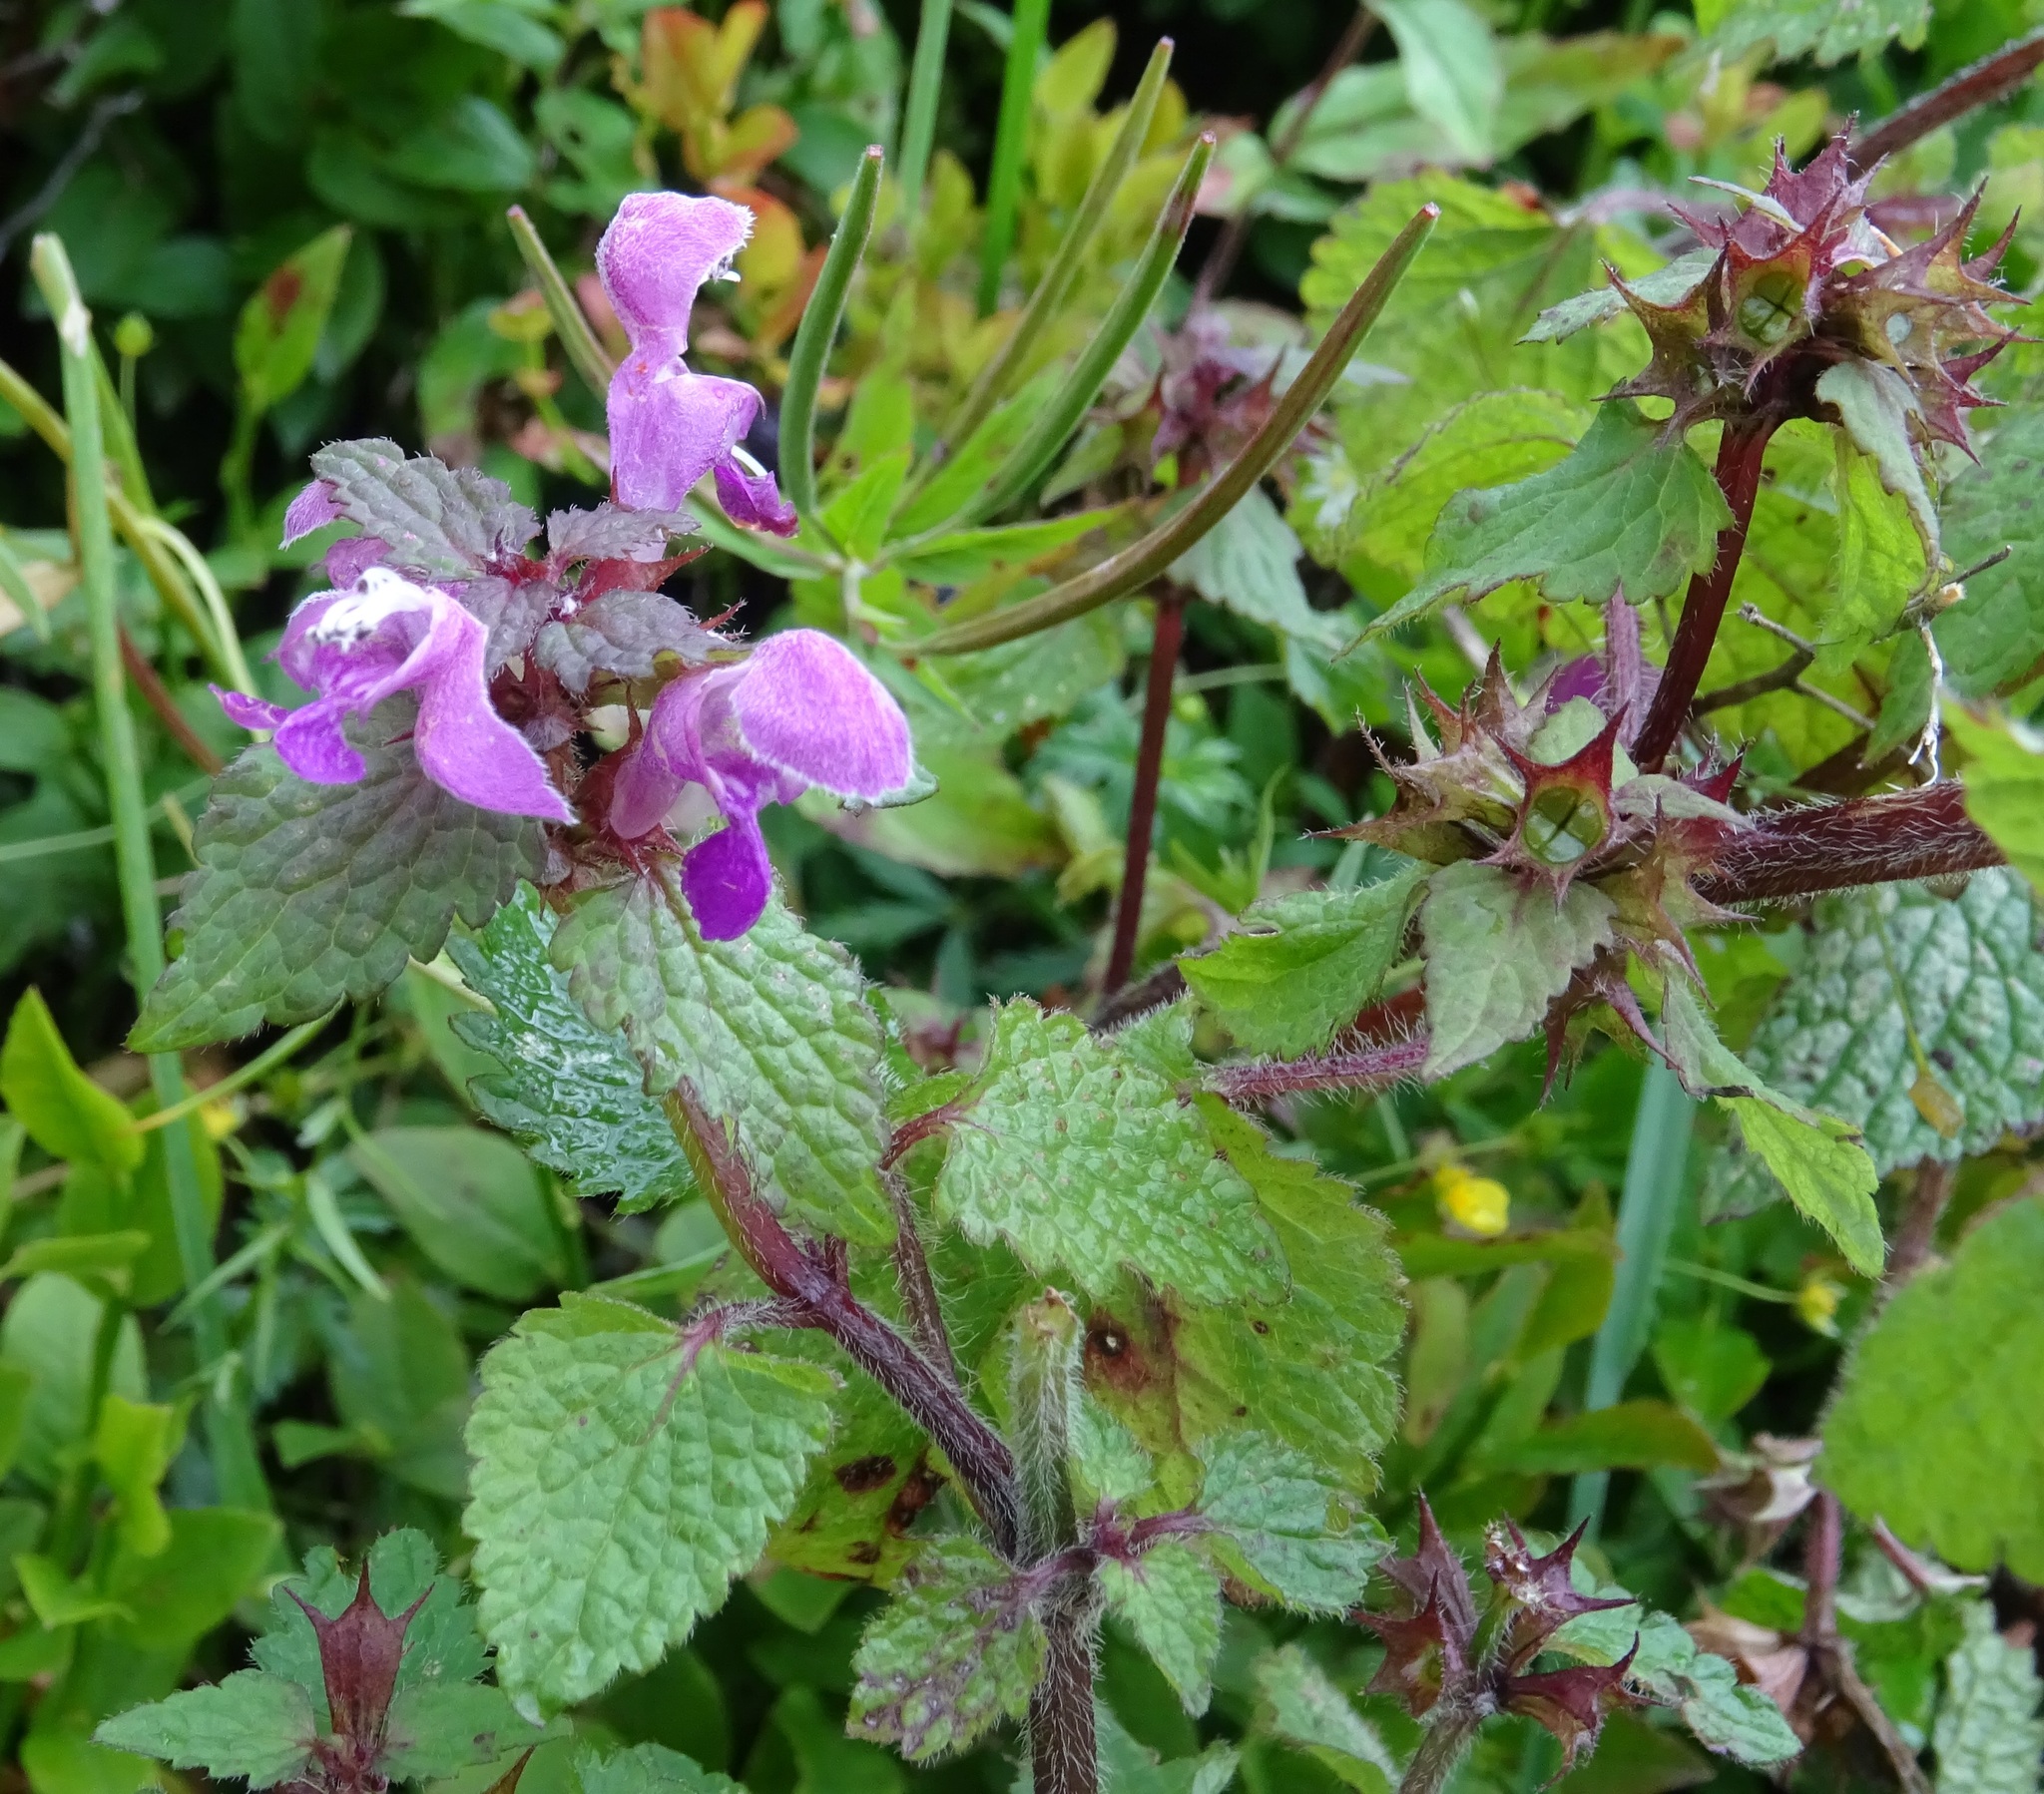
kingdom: Plantae
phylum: Tracheophyta
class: Magnoliopsida
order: Lamiales
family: Lamiaceae
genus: Lamium
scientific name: Lamium maculatum
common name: Spotted dead-nettle
